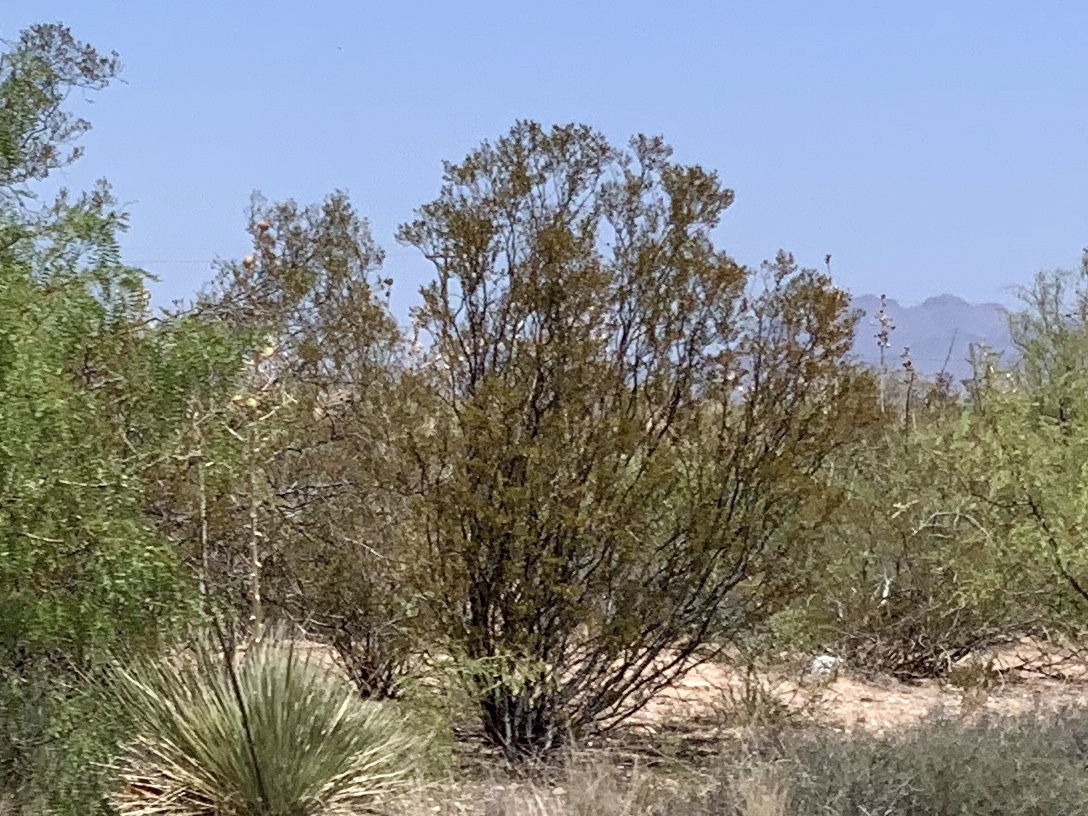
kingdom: Plantae
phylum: Tracheophyta
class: Magnoliopsida
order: Zygophyllales
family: Zygophyllaceae
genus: Larrea
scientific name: Larrea tridentata
